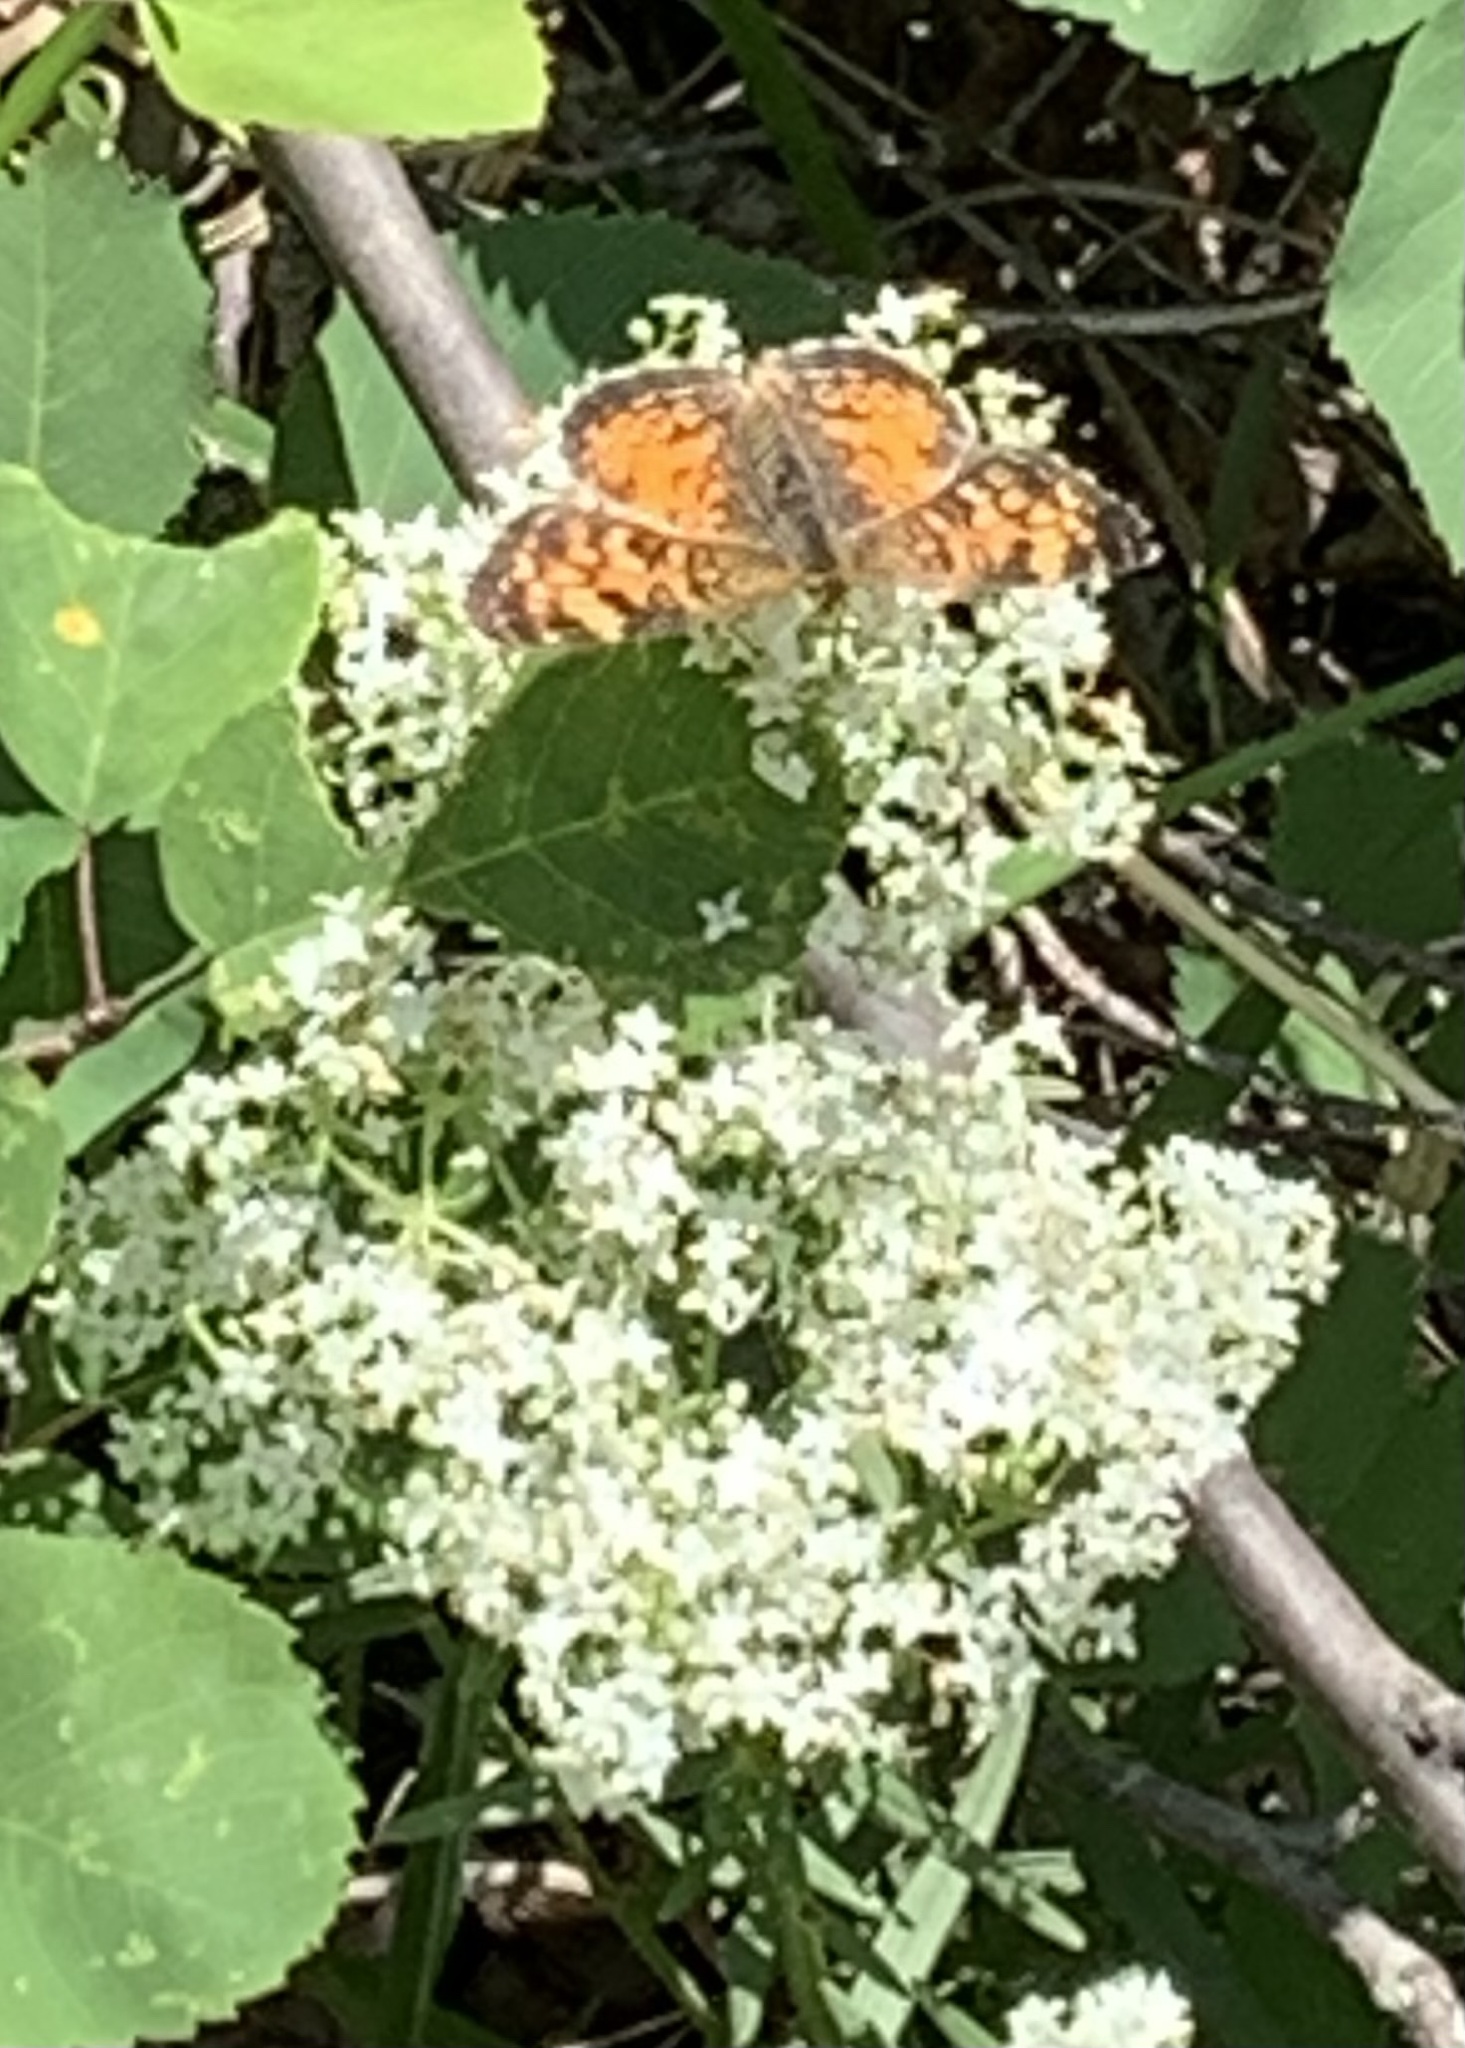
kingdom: Animalia
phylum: Arthropoda
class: Insecta
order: Lepidoptera
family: Nymphalidae
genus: Phyciodes
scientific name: Phyciodes tharos
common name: Pearl crescent
